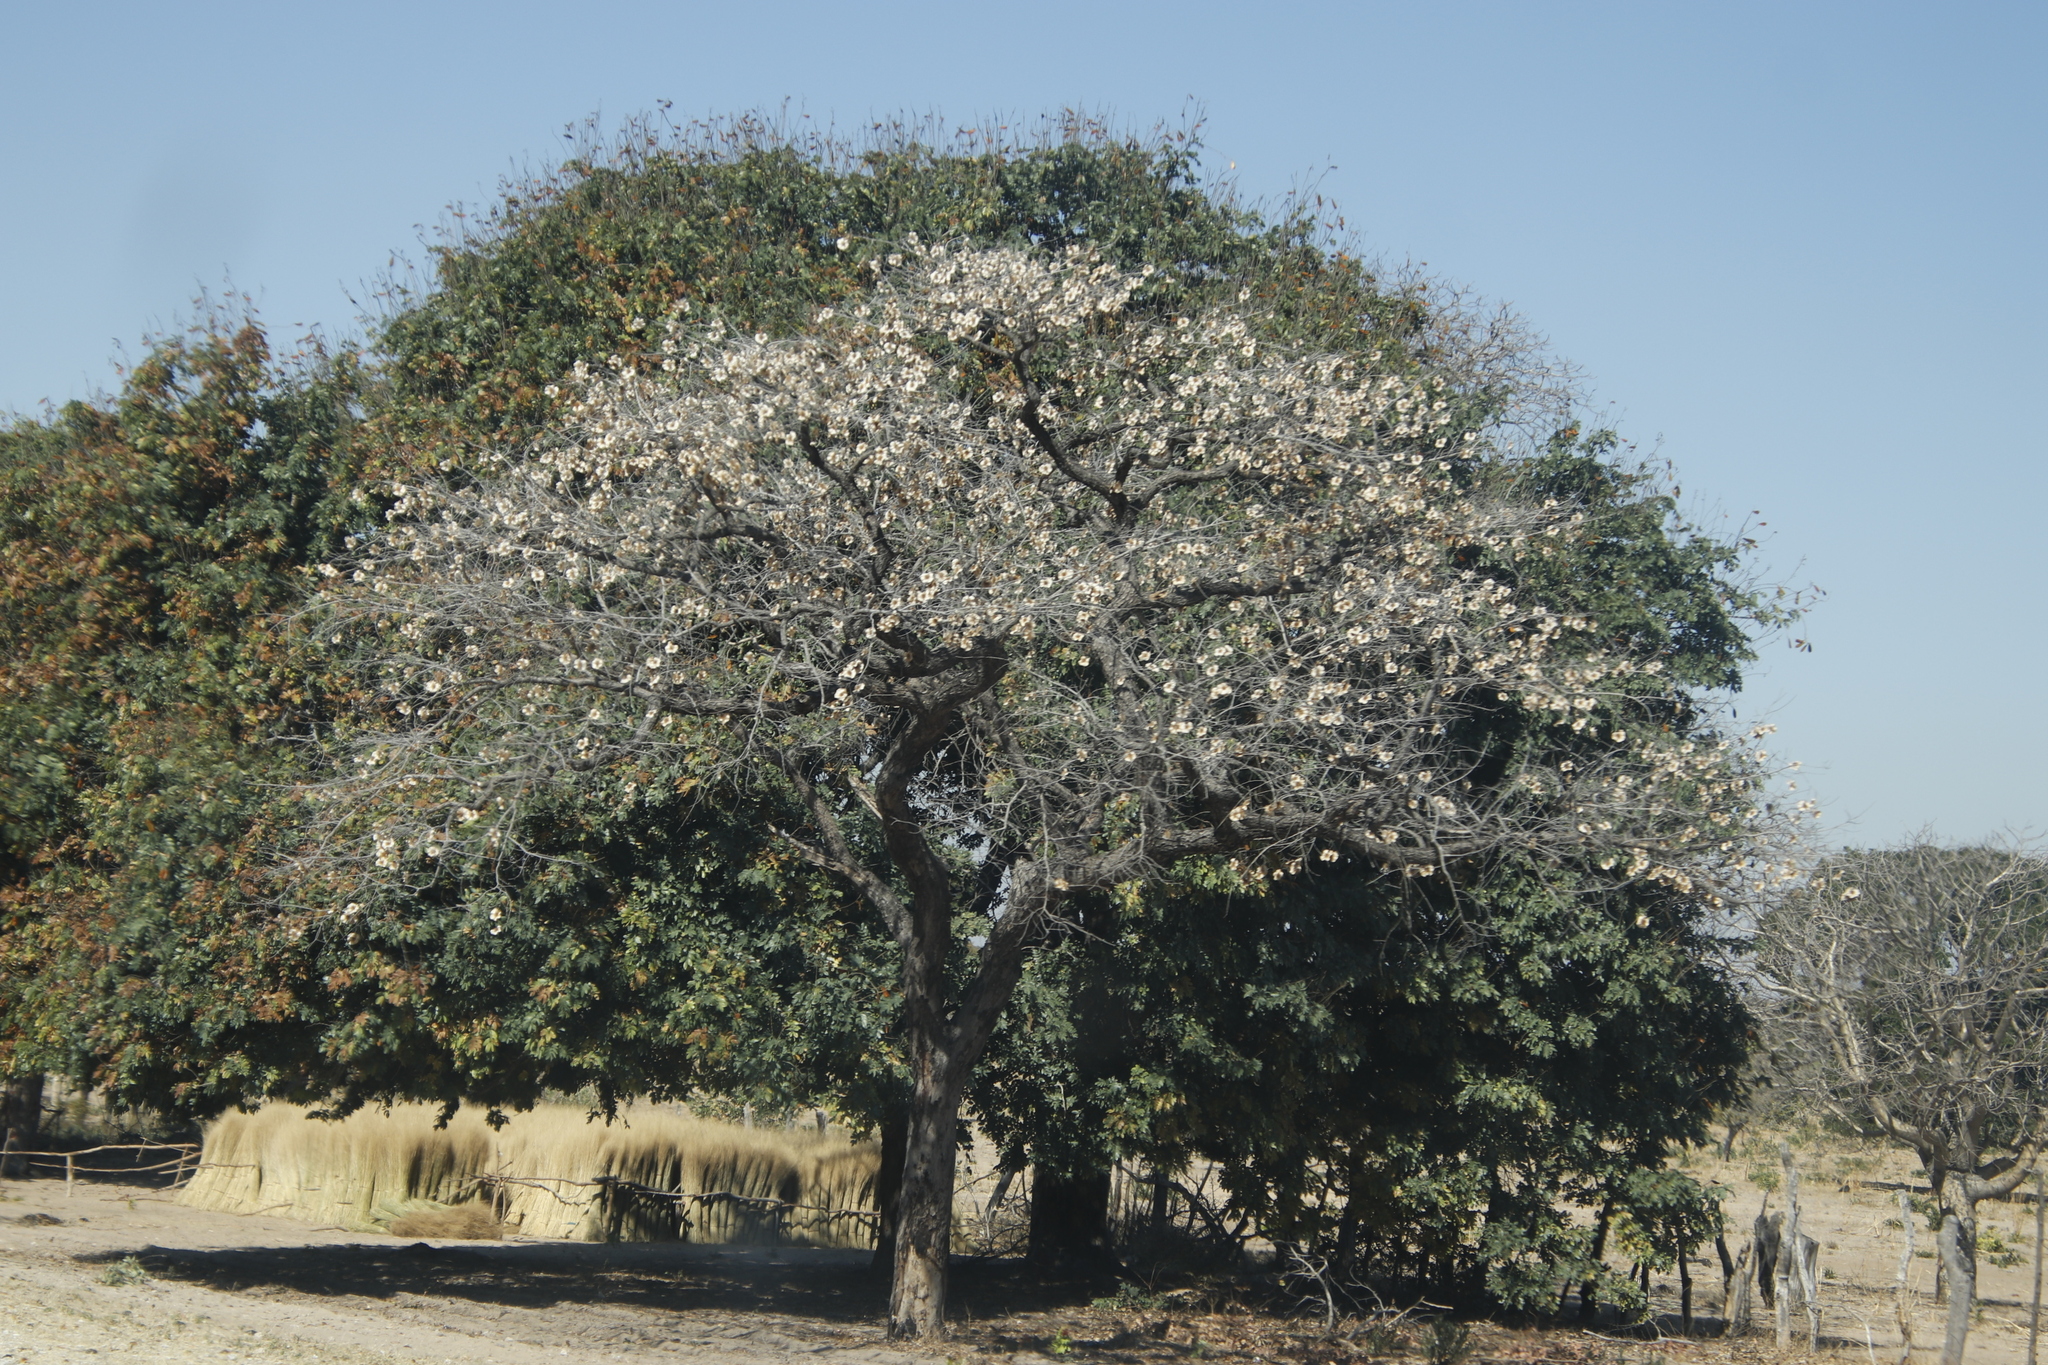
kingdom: Plantae
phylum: Tracheophyta
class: Magnoliopsida
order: Fabales
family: Fabaceae
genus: Pterocarpus
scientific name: Pterocarpus angolensis
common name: Bloodwood tree
